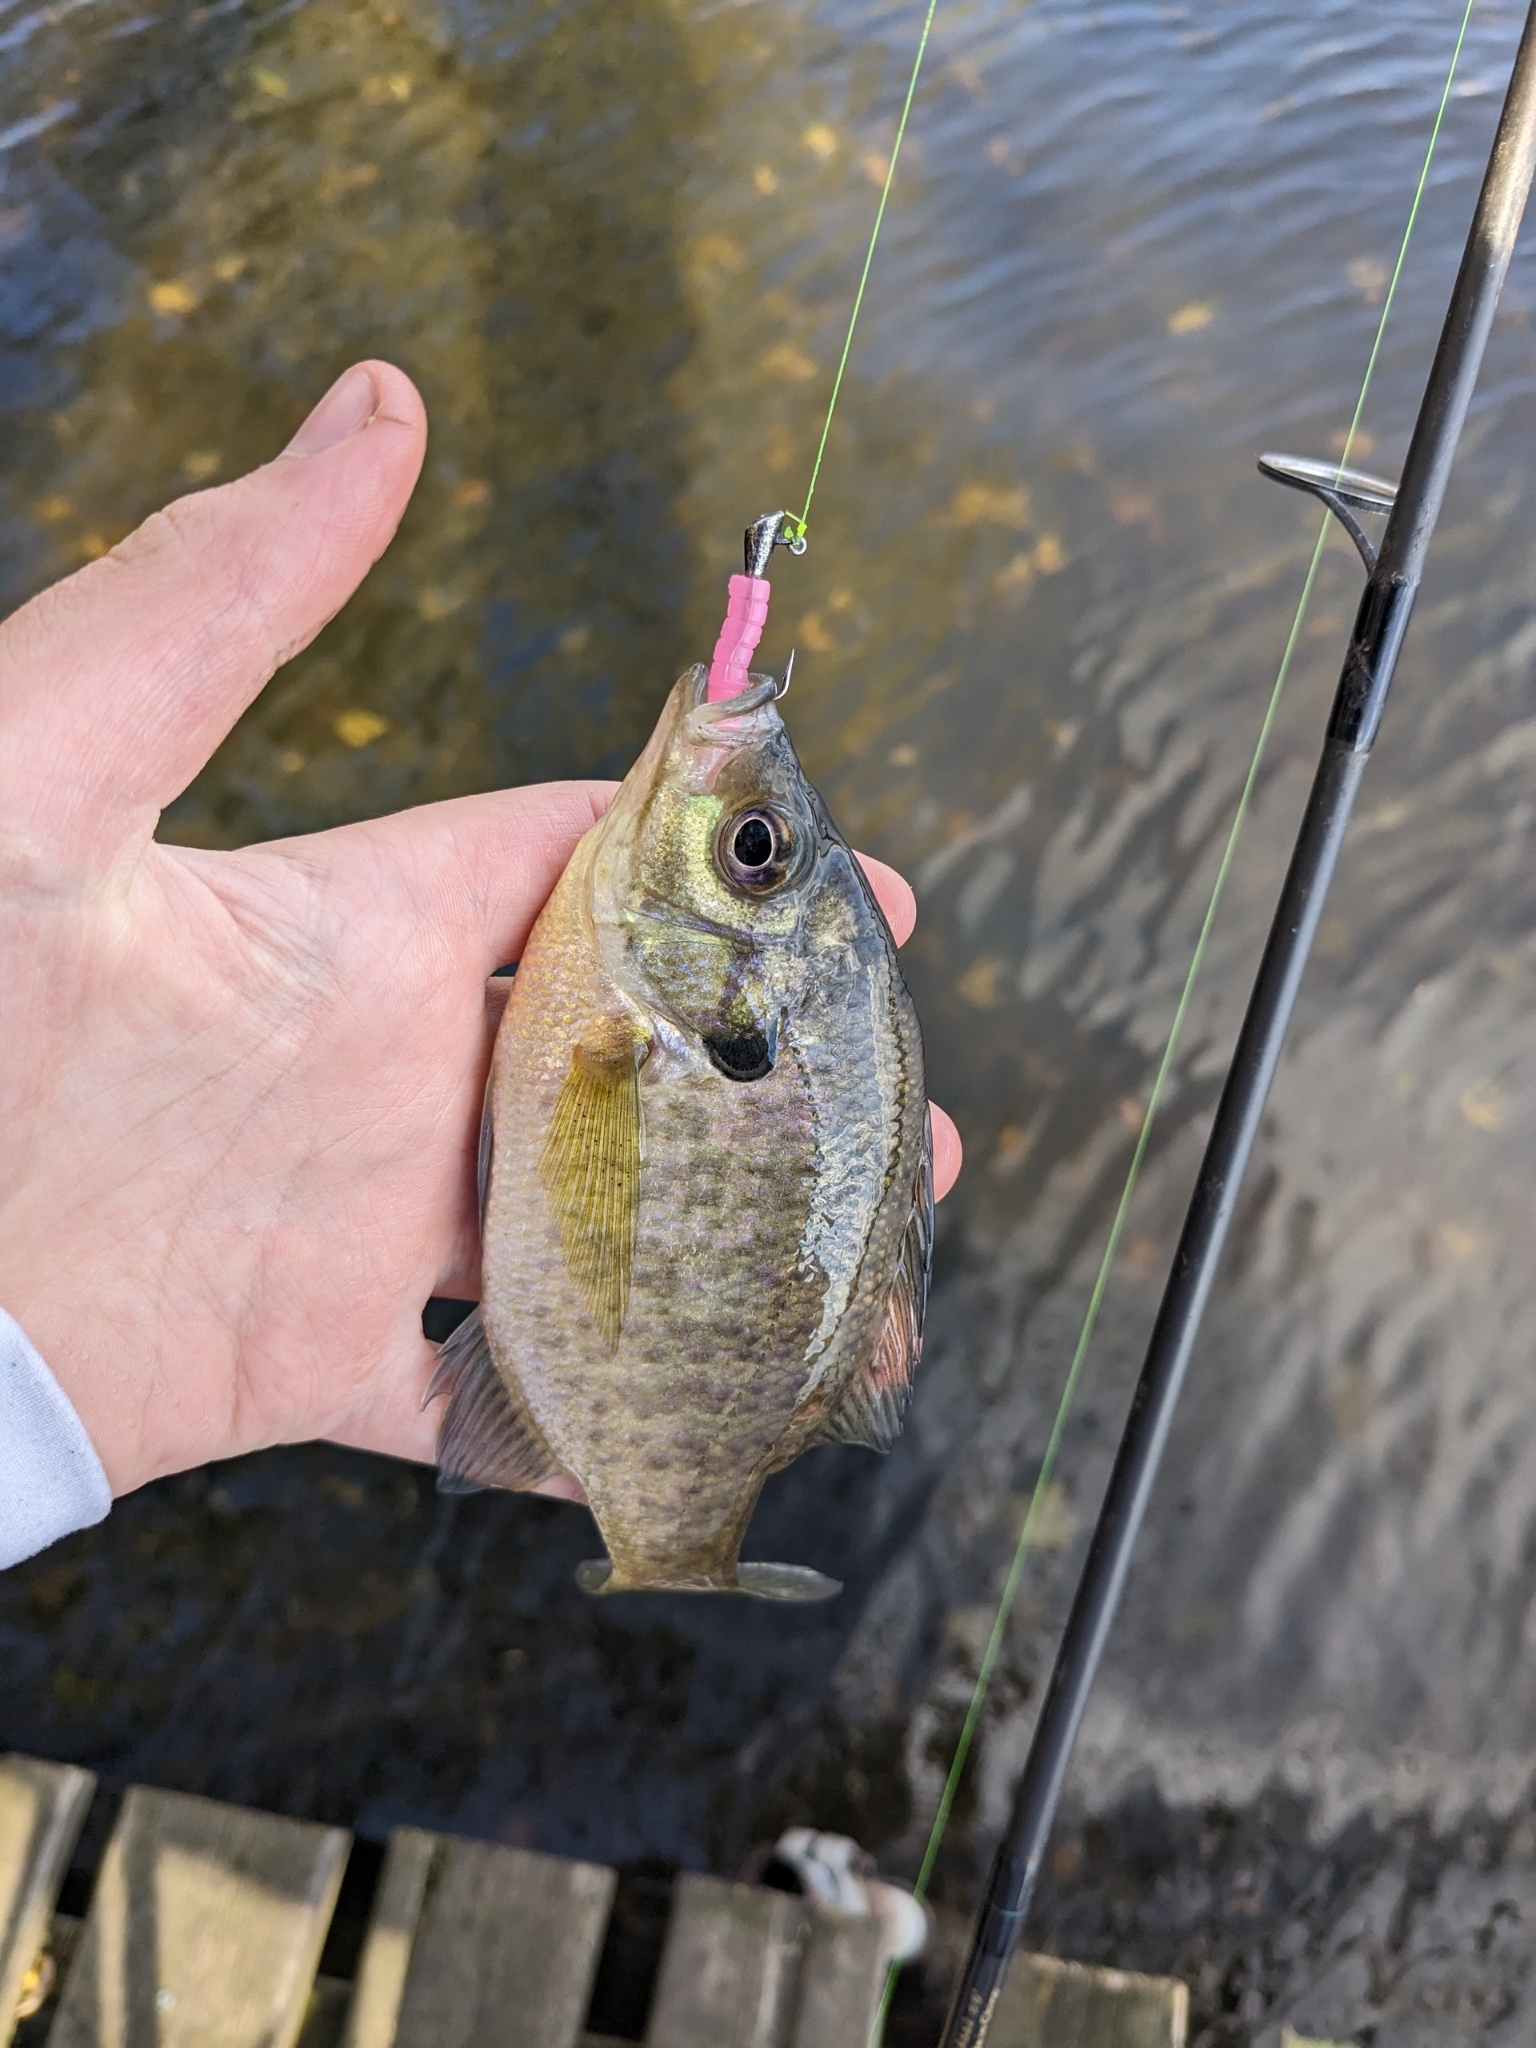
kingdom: Animalia
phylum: Chordata
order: Perciformes
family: Centrarchidae
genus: Lepomis
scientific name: Lepomis macrochirus
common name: Bluegill
